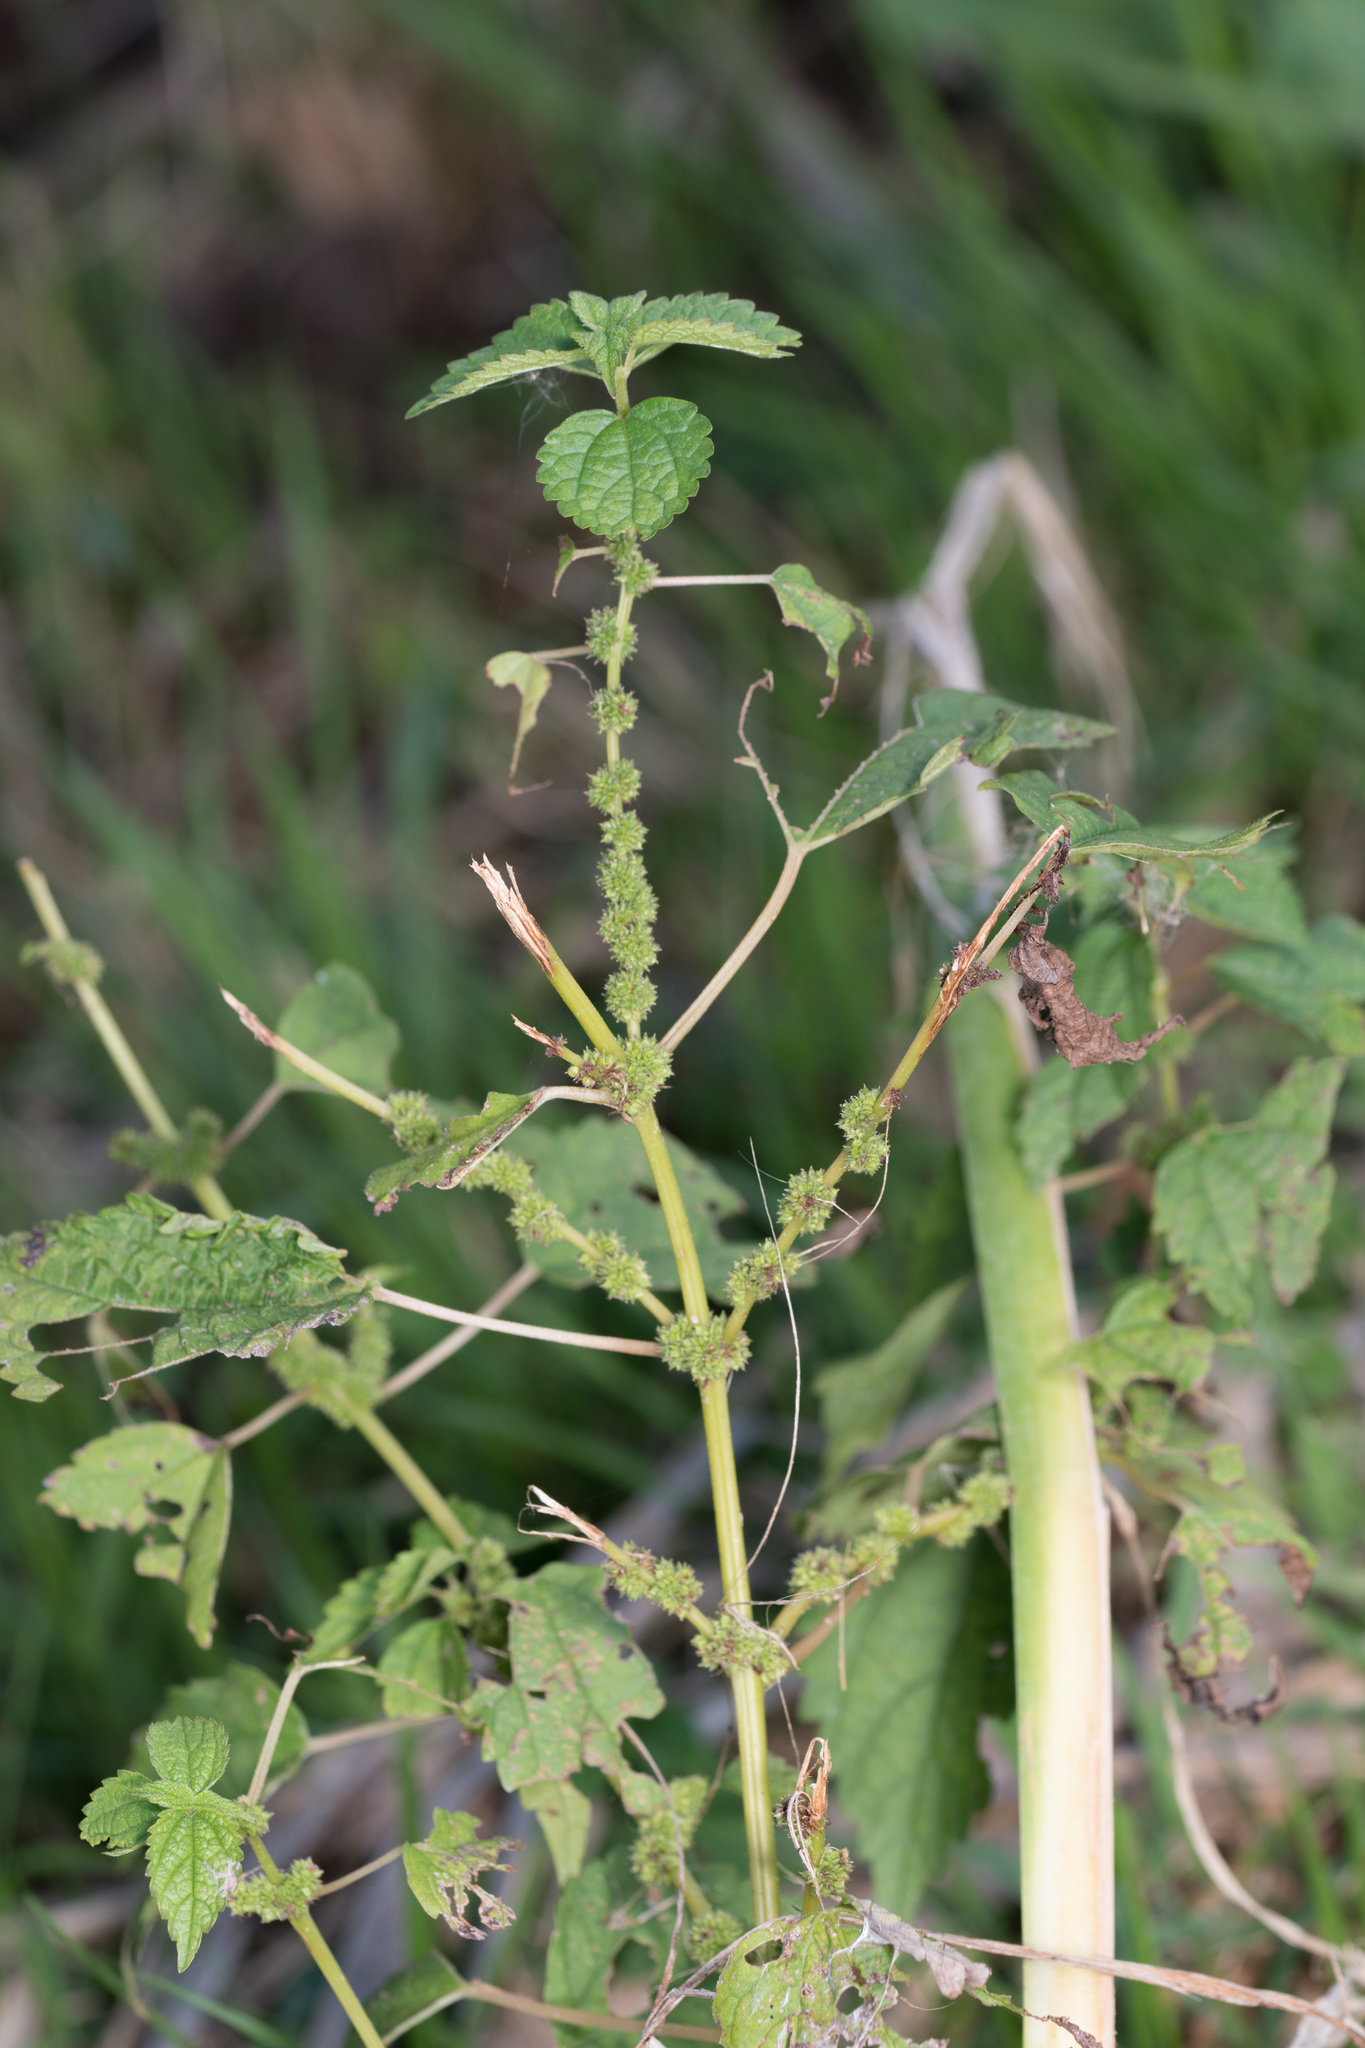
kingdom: Plantae
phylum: Tracheophyta
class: Magnoliopsida
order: Rosales
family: Urticaceae
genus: Boehmeria
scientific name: Boehmeria cylindrica
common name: Bog-hemp
